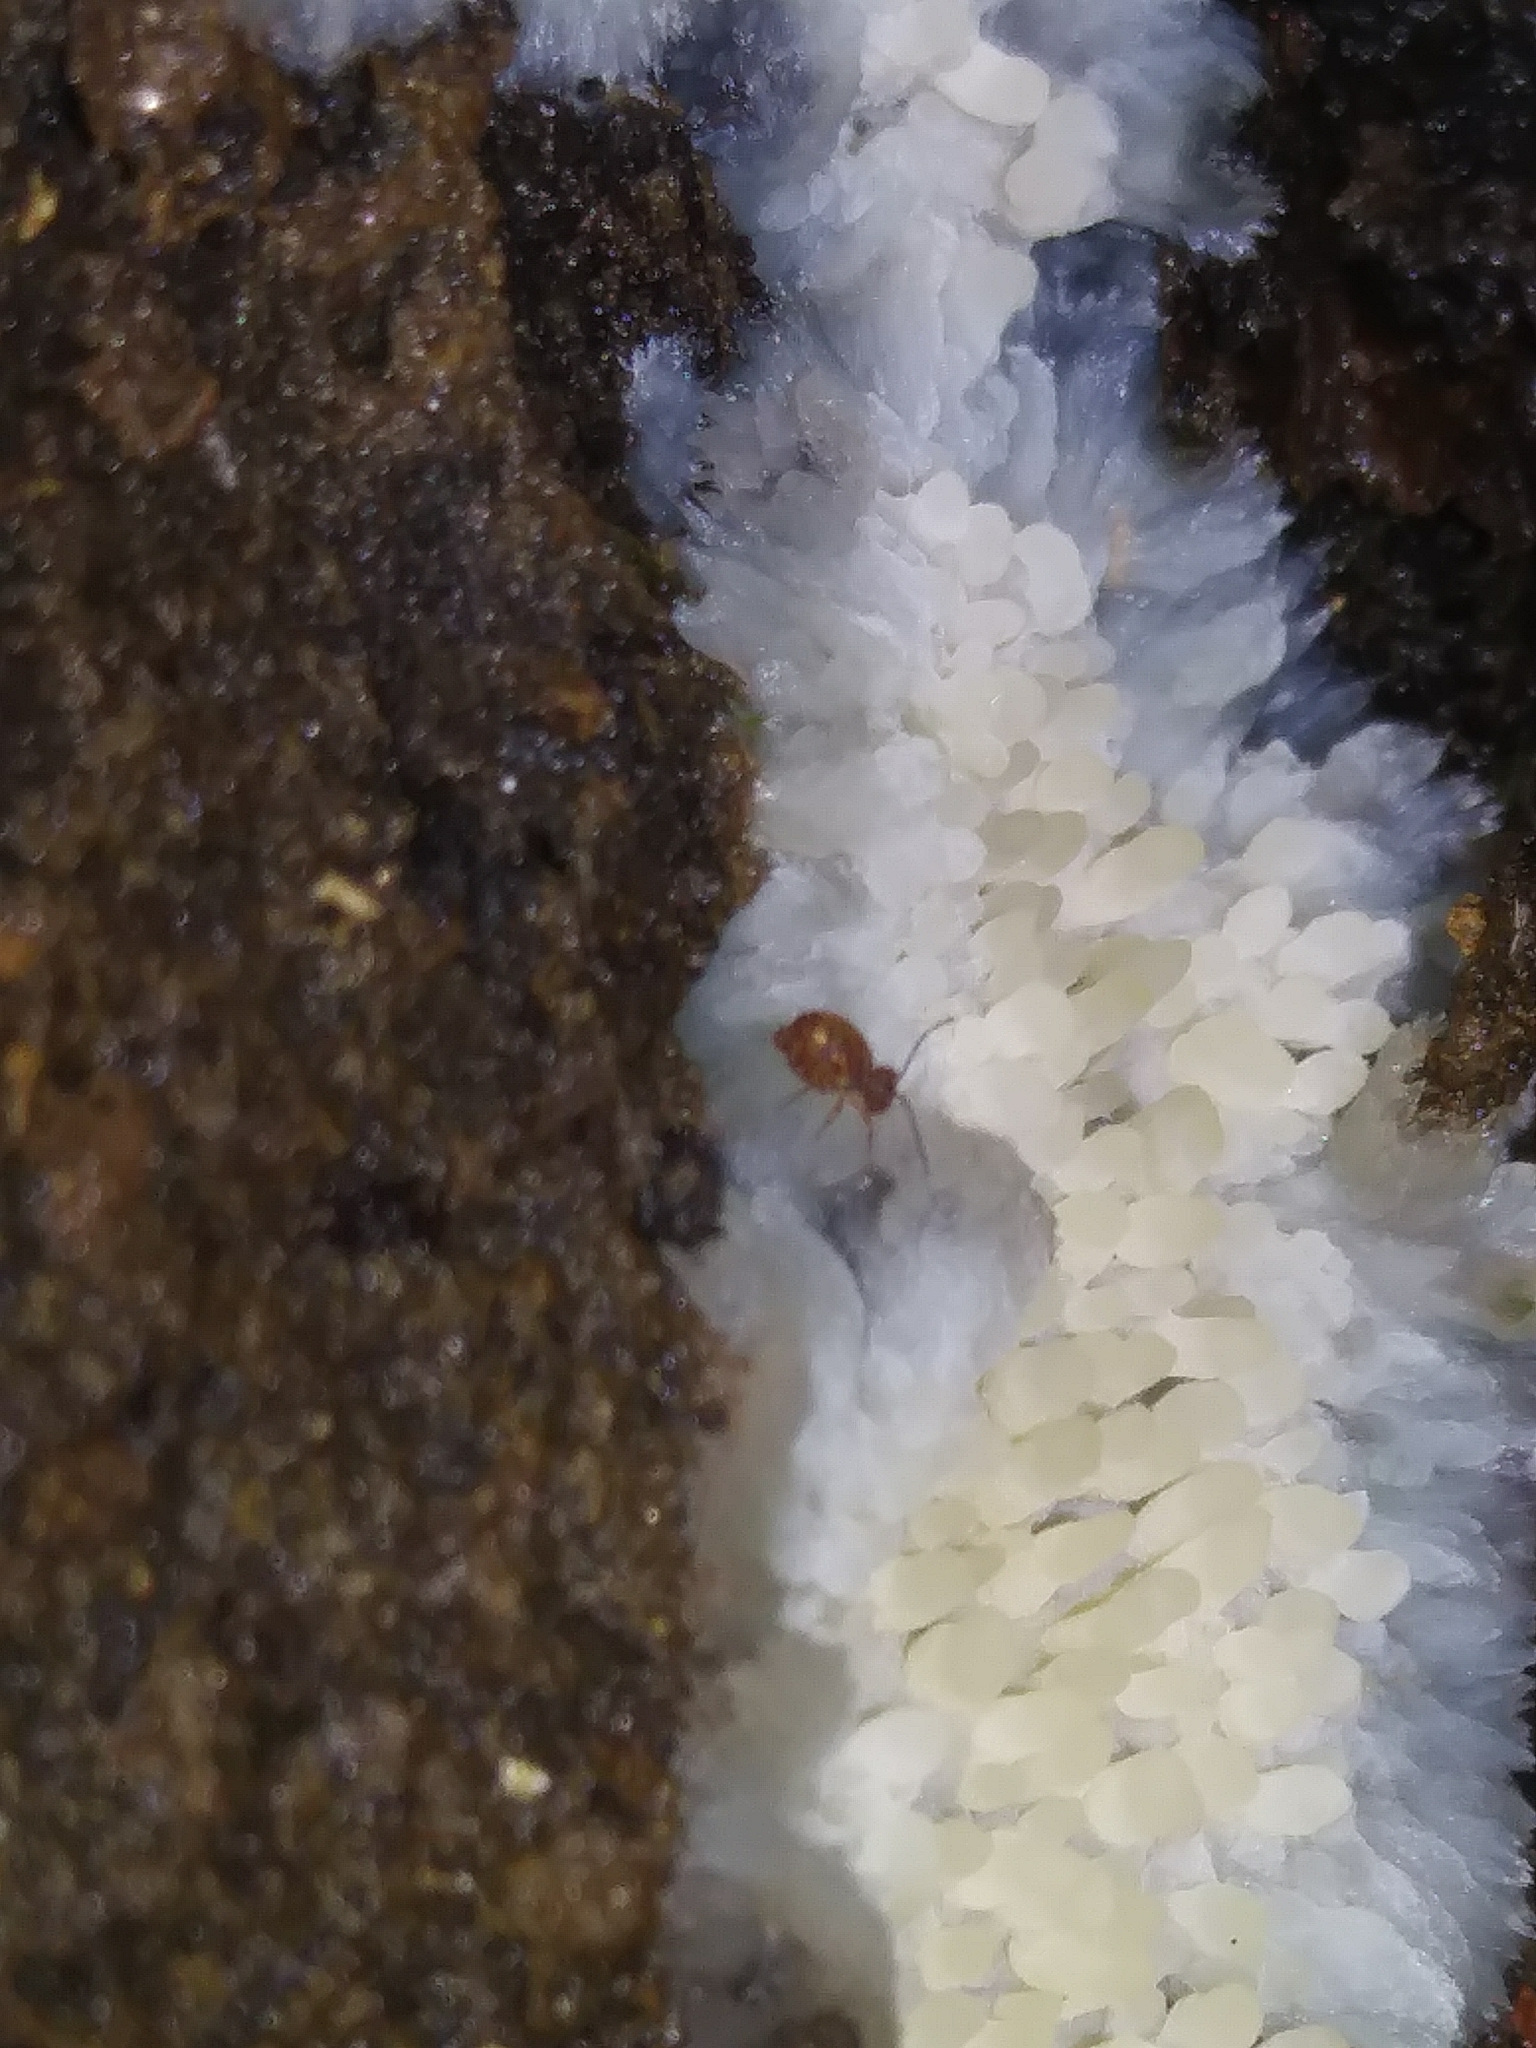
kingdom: Fungi
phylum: Basidiomycota
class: Agaricomycetes
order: Agaricales
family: Radulomycetaceae
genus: Radulomyces
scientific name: Radulomyces copelandii
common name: Asian beauty
